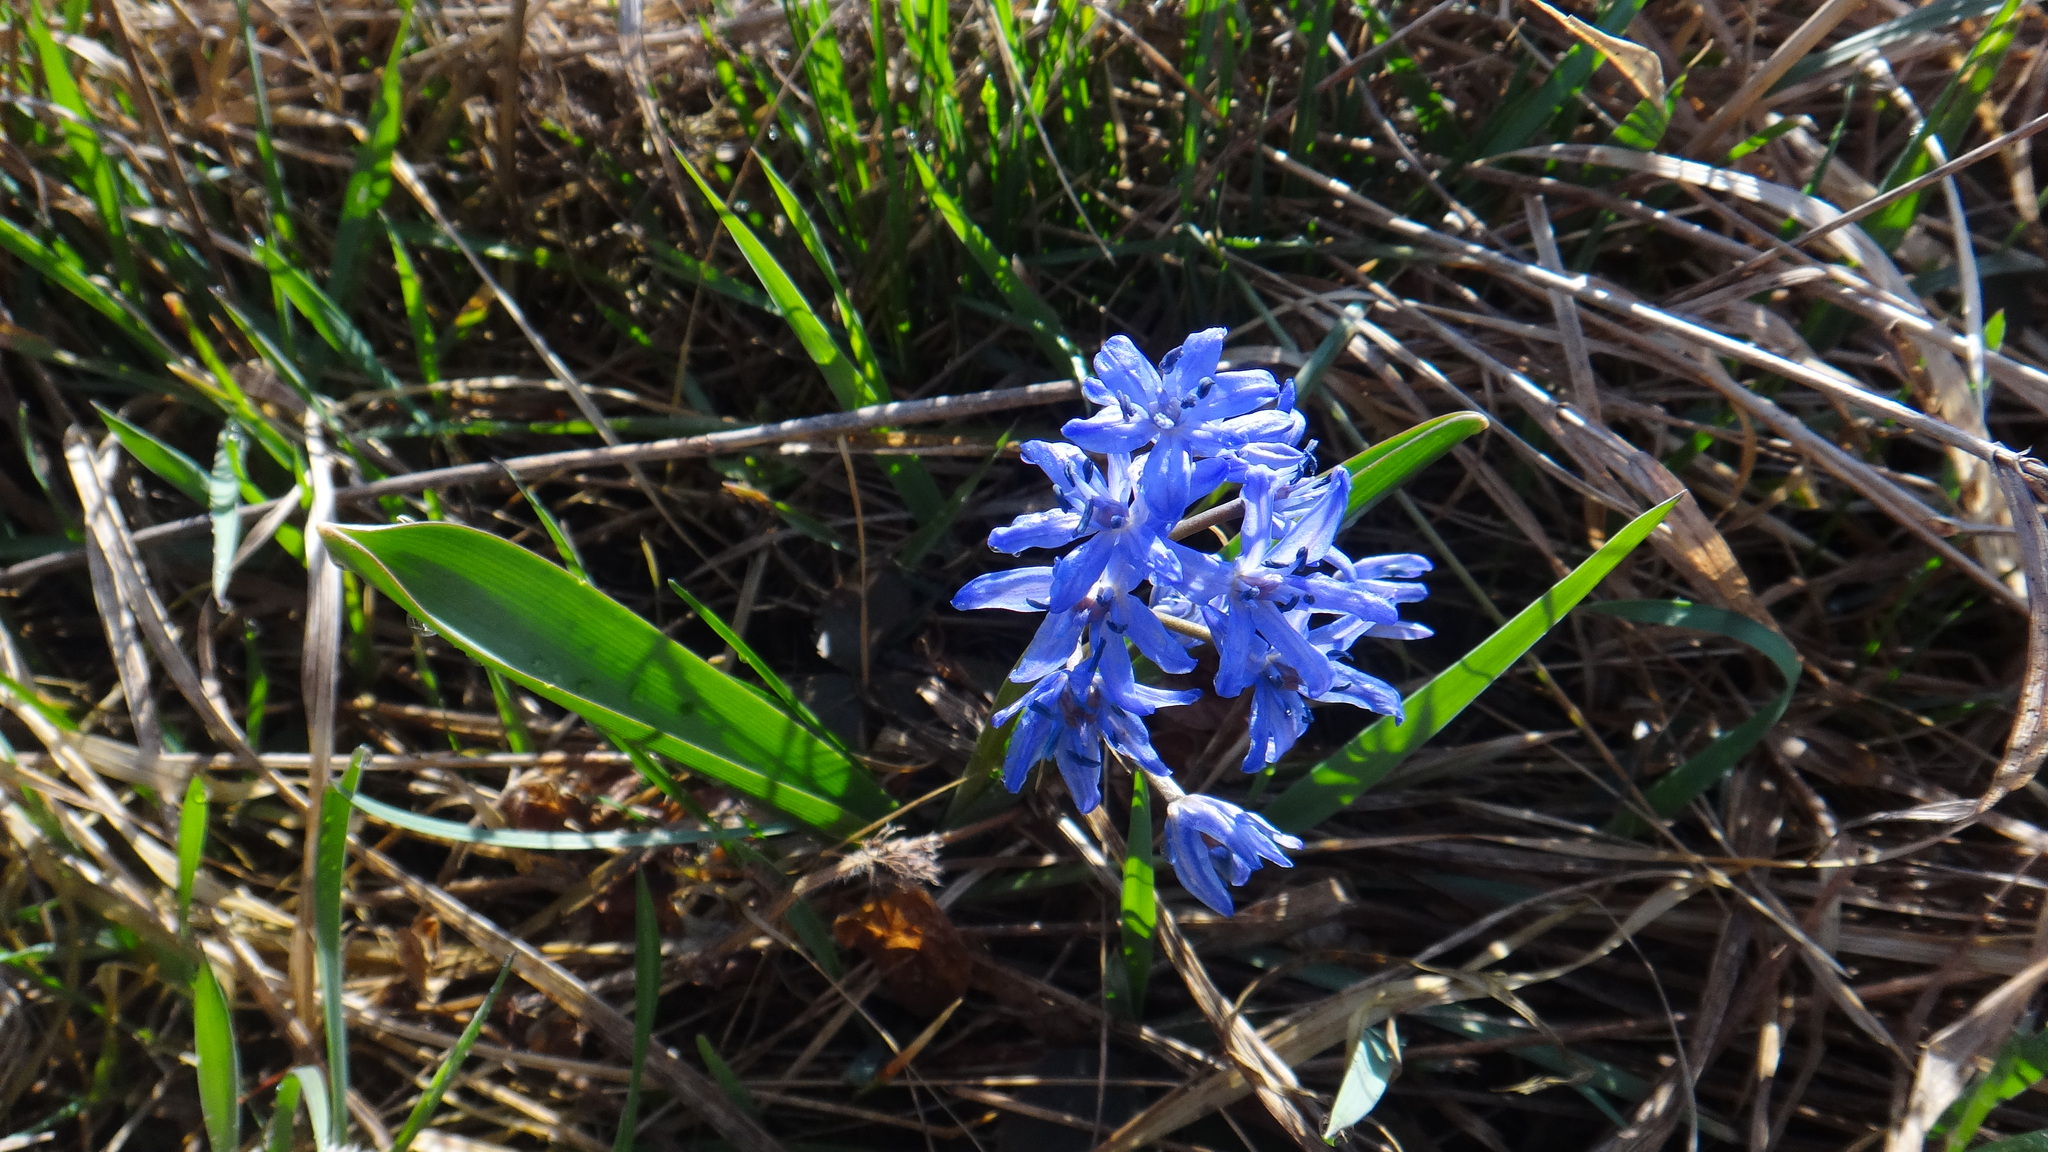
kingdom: Plantae
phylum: Tracheophyta
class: Liliopsida
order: Asparagales
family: Asparagaceae
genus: Scilla
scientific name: Scilla bifolia
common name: Alpine squill
